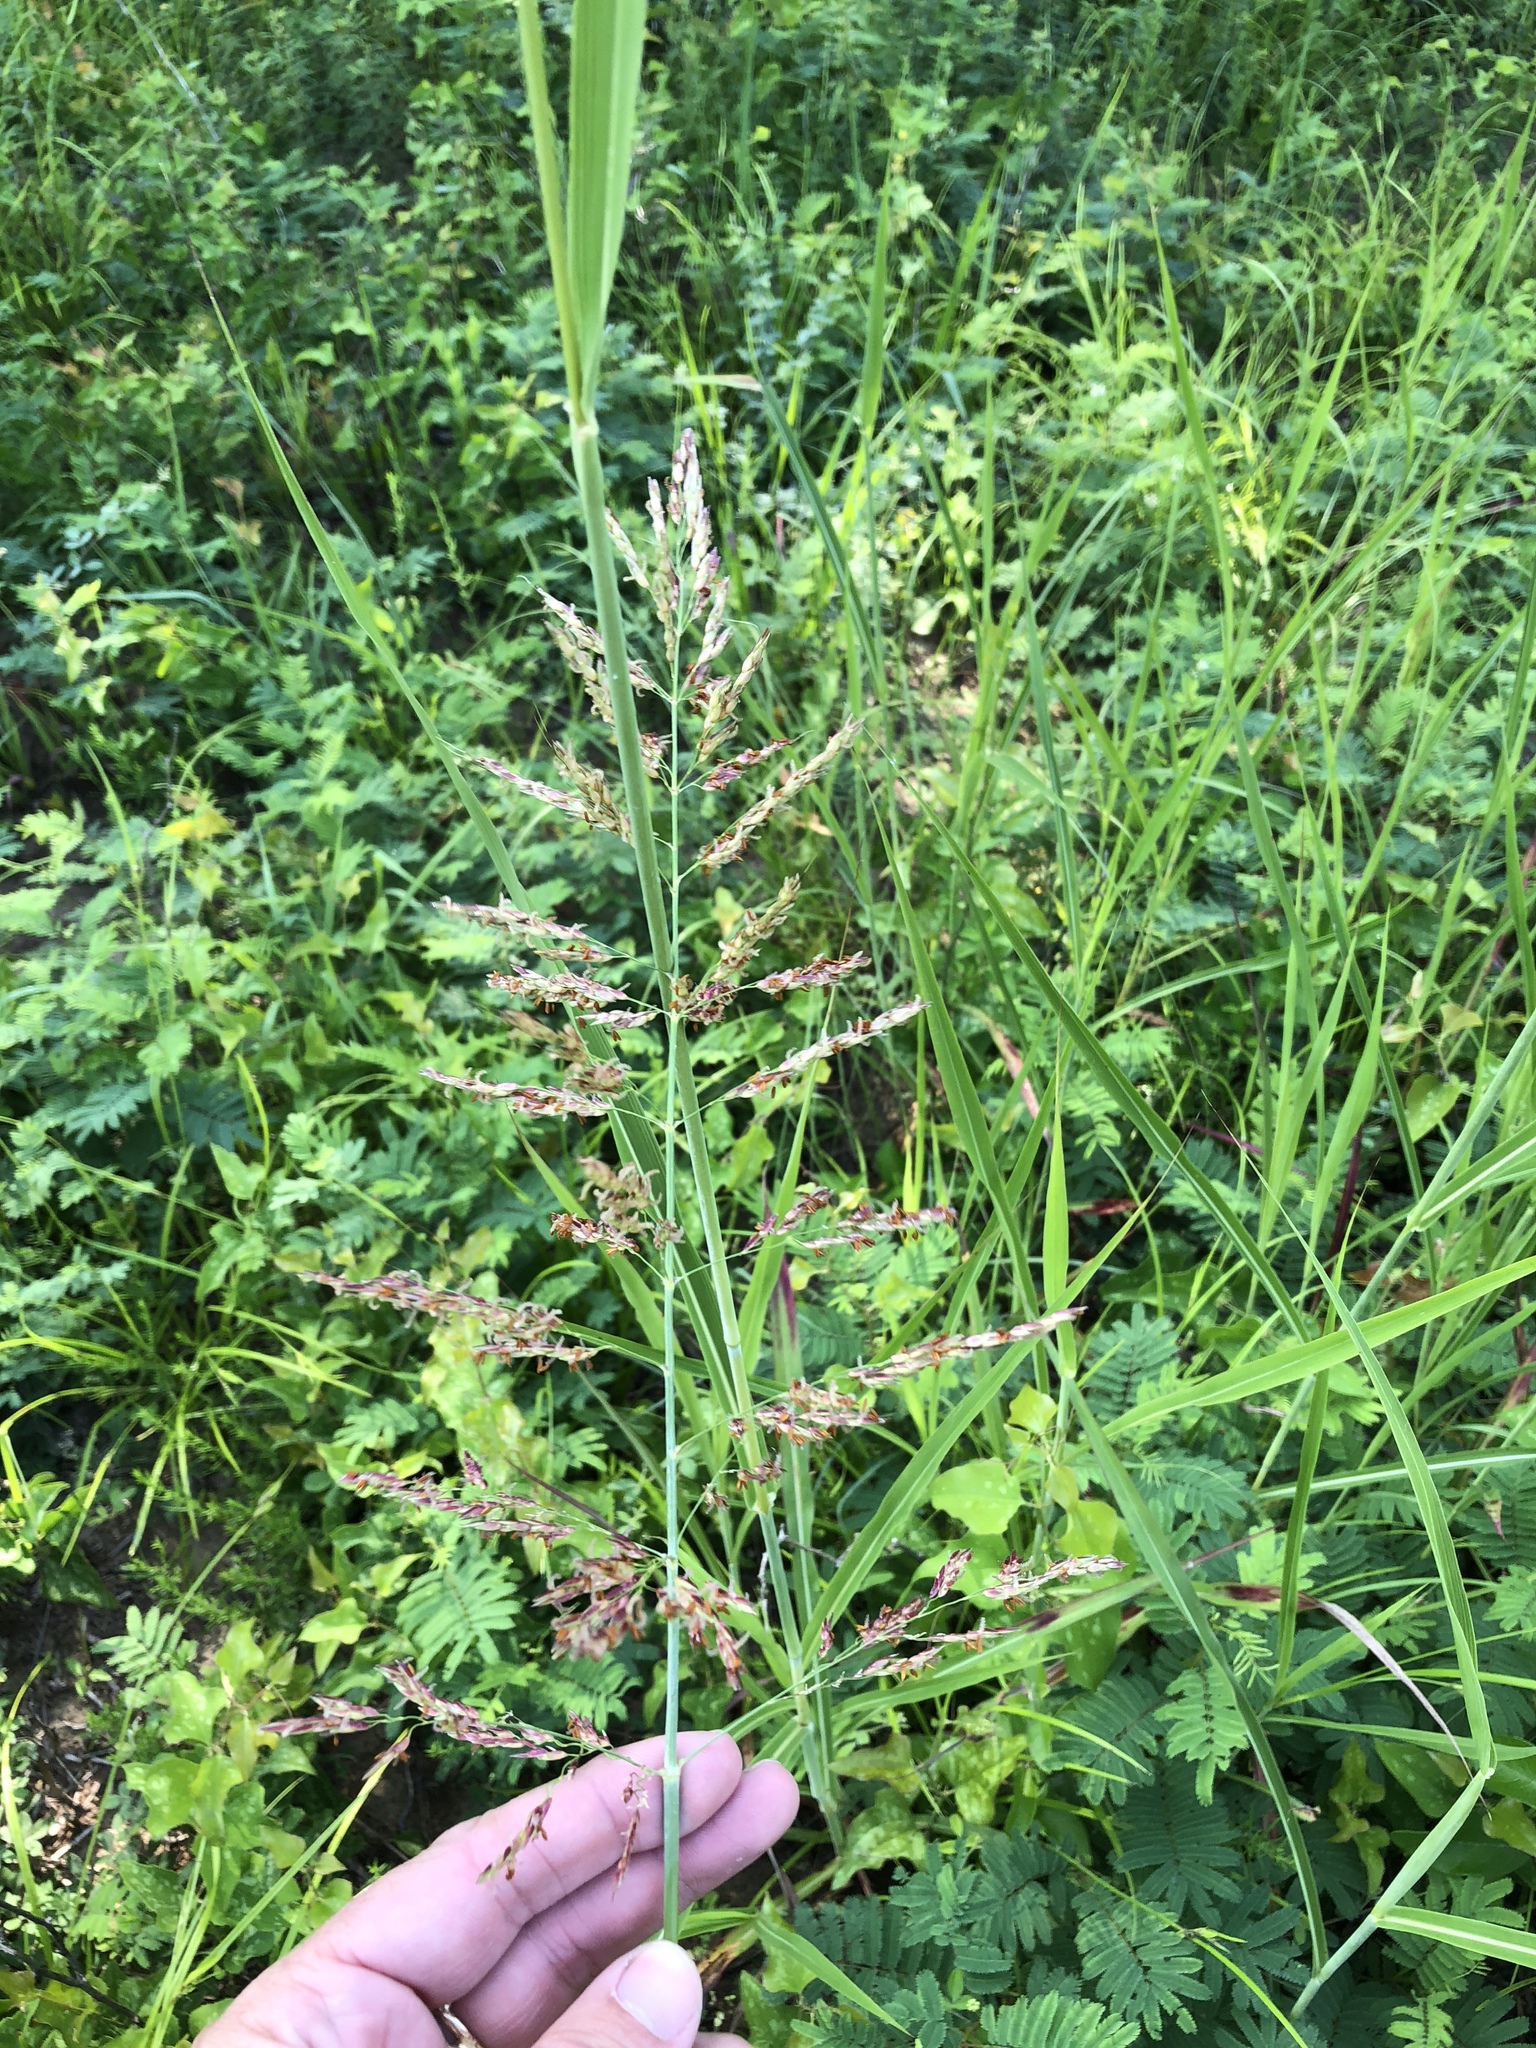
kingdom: Plantae
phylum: Tracheophyta
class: Liliopsida
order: Poales
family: Poaceae
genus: Sorghum
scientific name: Sorghum halepense
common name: Johnson-grass
